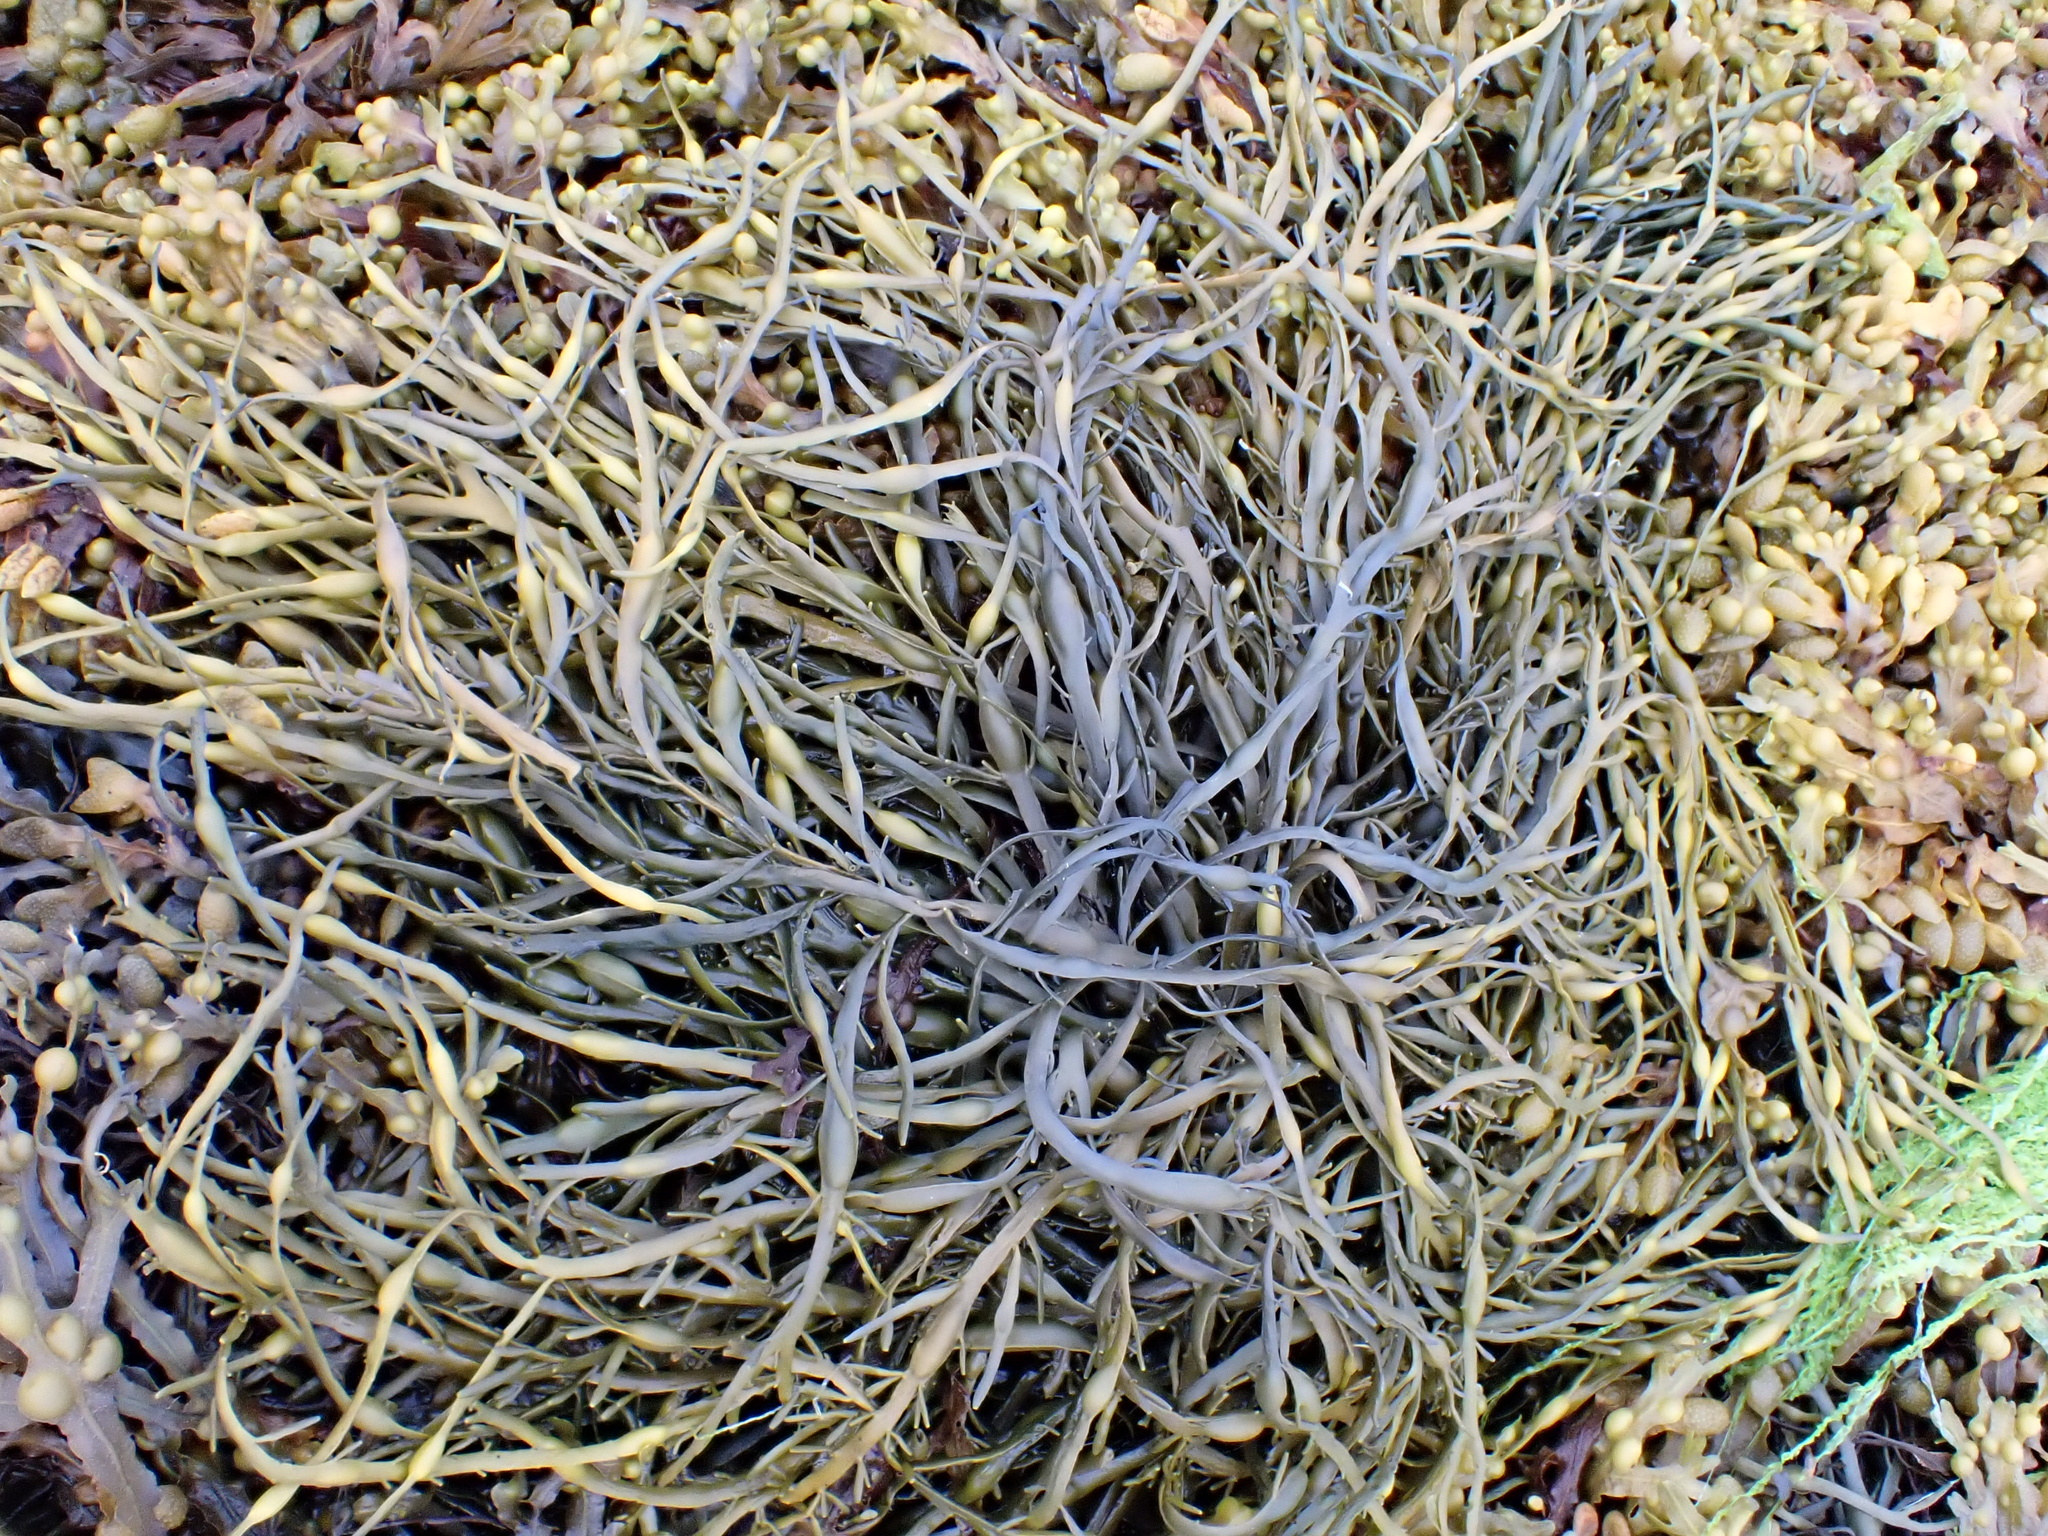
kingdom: Chromista
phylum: Ochrophyta
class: Phaeophyceae
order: Fucales
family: Fucaceae
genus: Ascophyllum
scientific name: Ascophyllum nodosum
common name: Knotted wrack
